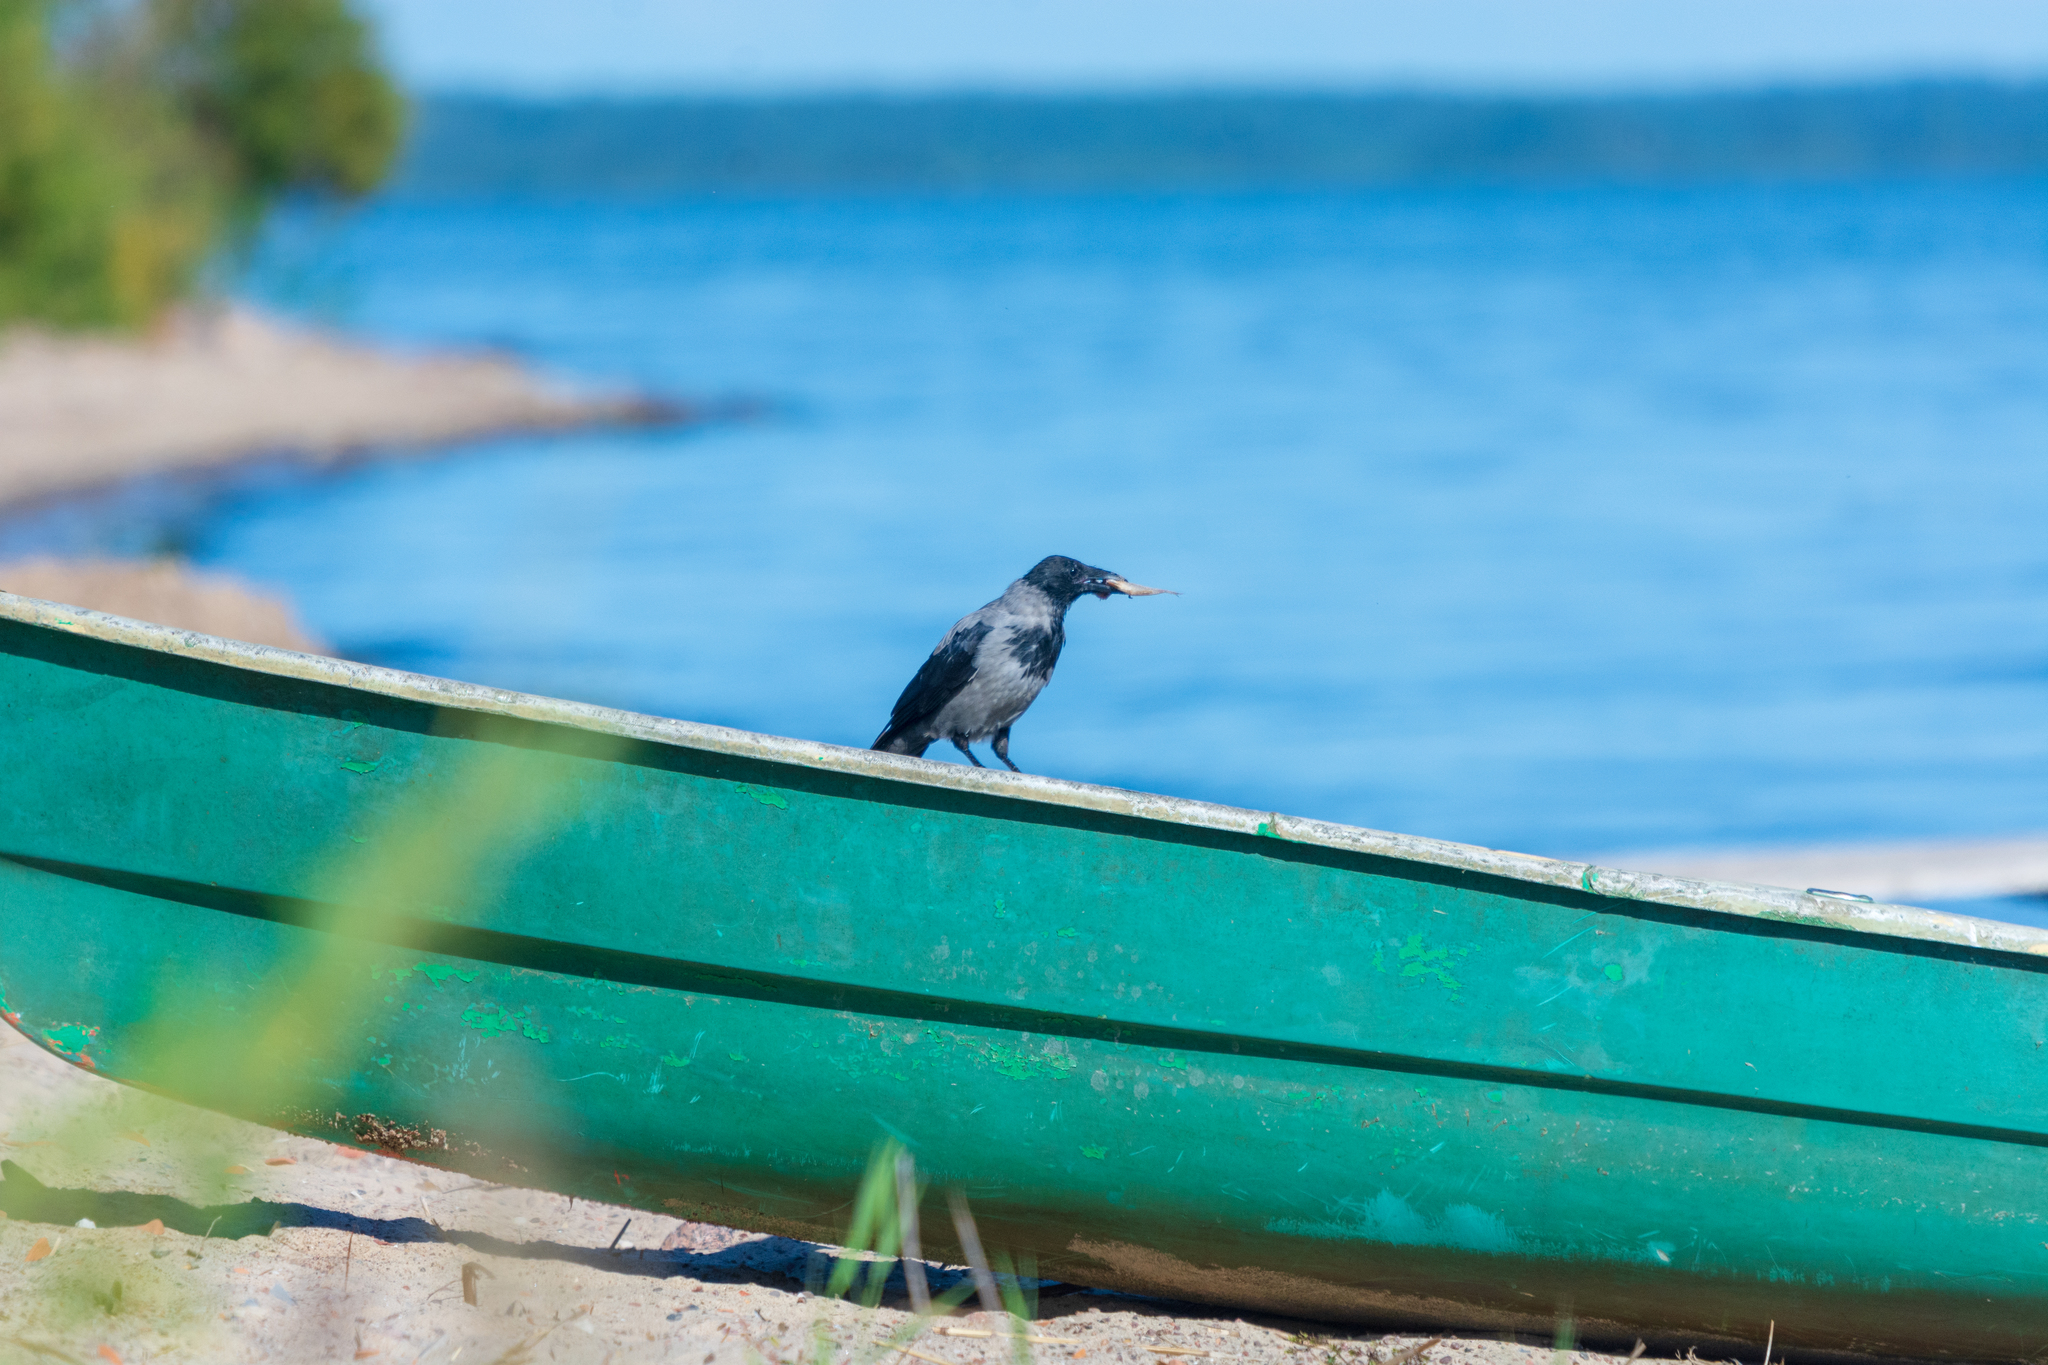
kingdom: Animalia
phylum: Chordata
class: Aves
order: Passeriformes
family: Corvidae
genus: Corvus
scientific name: Corvus cornix
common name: Hooded crow
